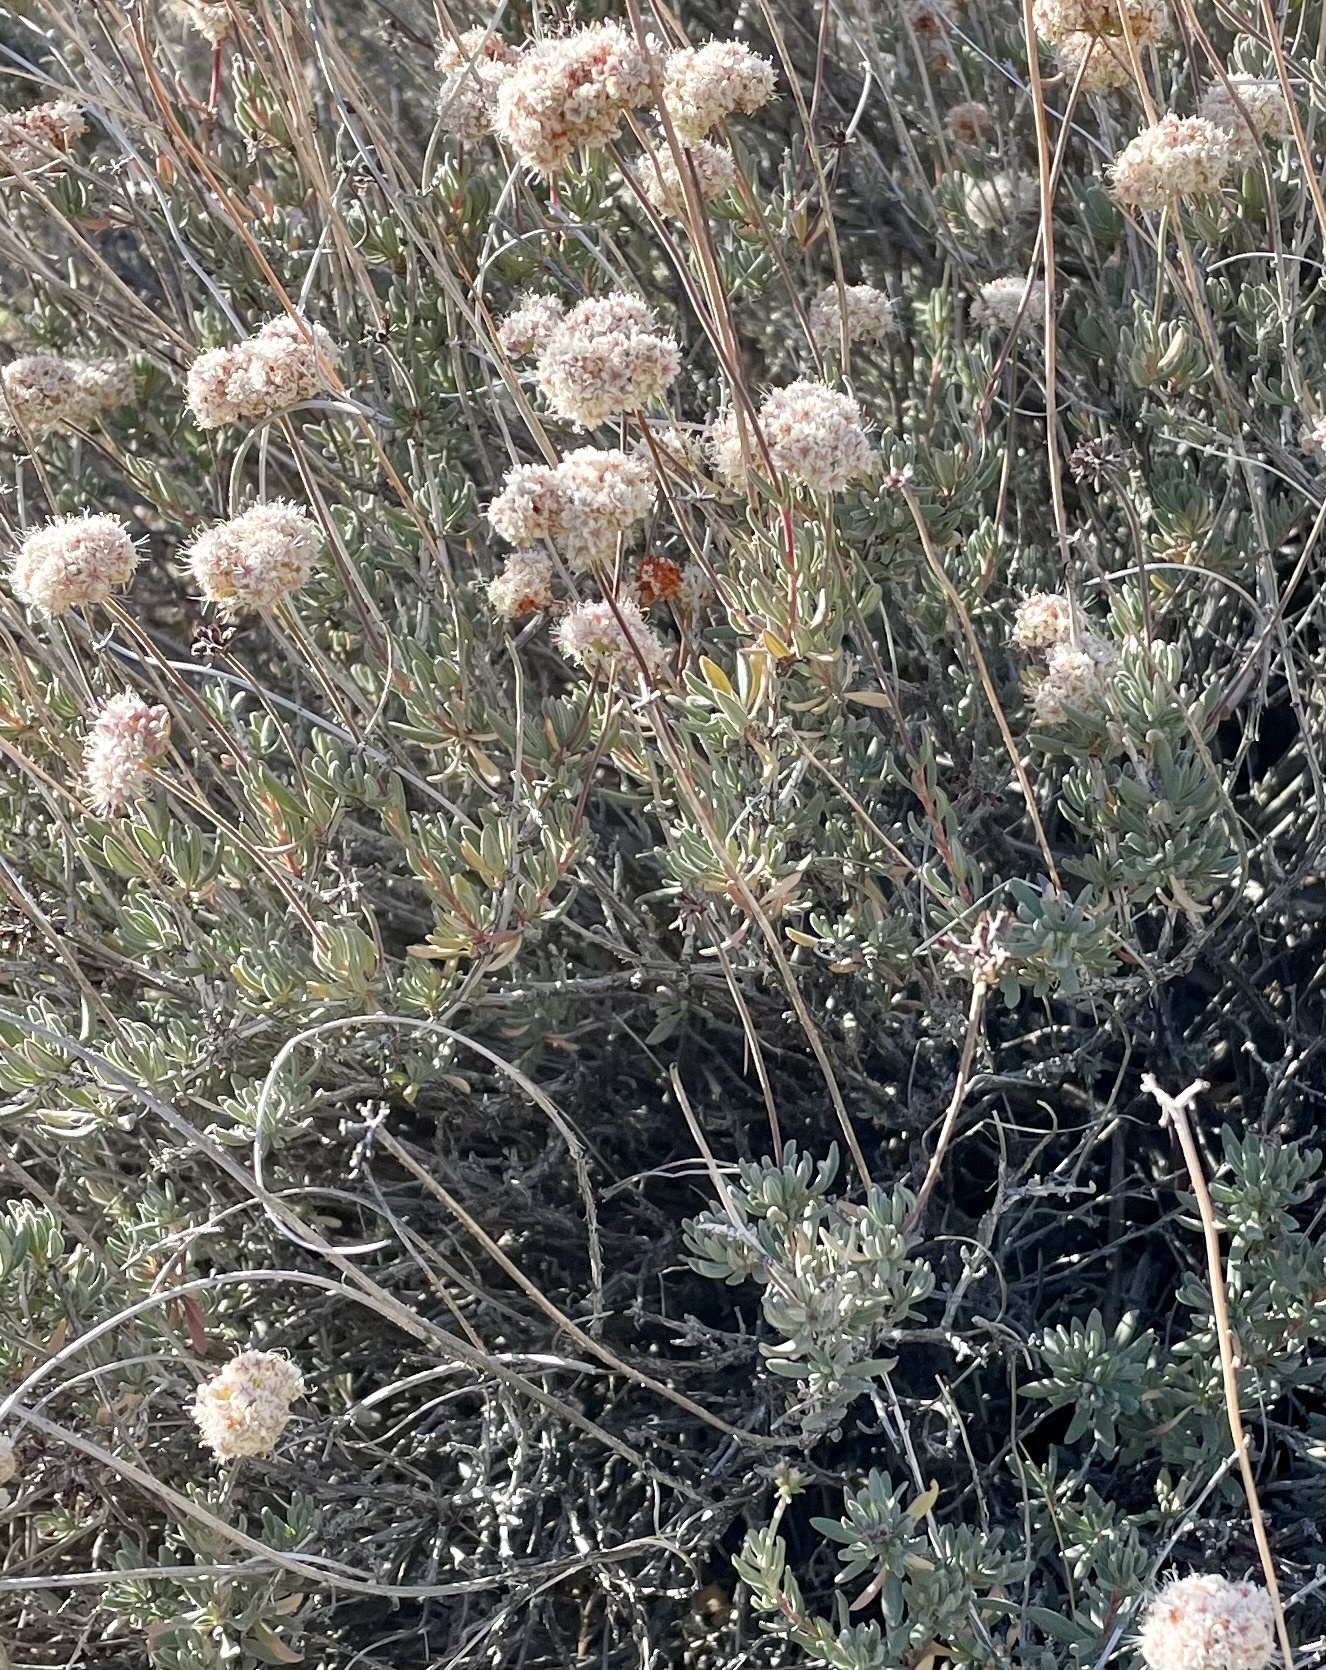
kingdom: Plantae
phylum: Tracheophyta
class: Magnoliopsida
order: Caryophyllales
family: Polygonaceae
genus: Eriogonum
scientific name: Eriogonum fasciculatum
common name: California wild buckwheat
